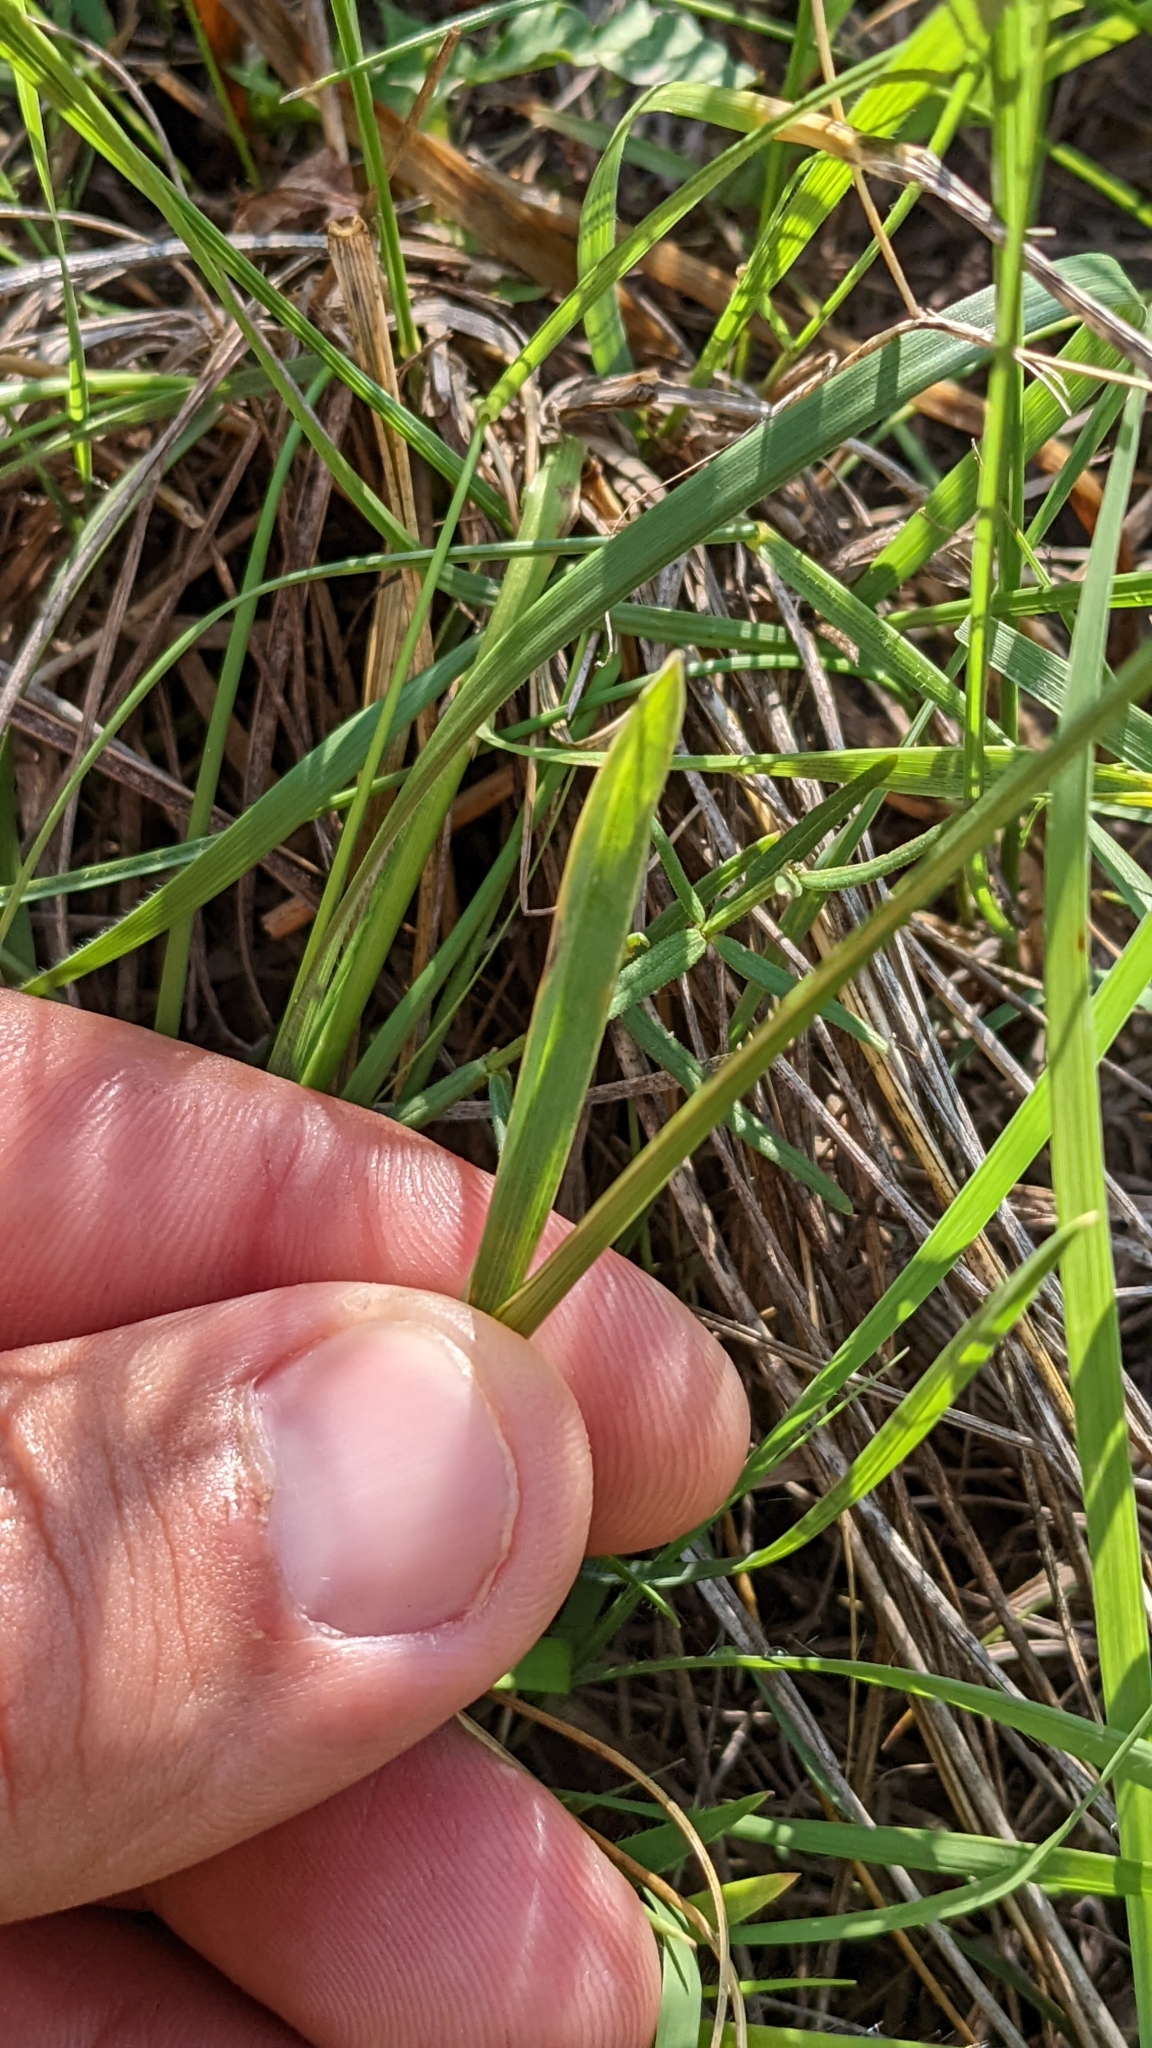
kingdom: Plantae
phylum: Tracheophyta
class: Liliopsida
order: Poales
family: Poaceae
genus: Helictochloa
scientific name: Helictochloa hookeri
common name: Hooker's alpine oatgrass
